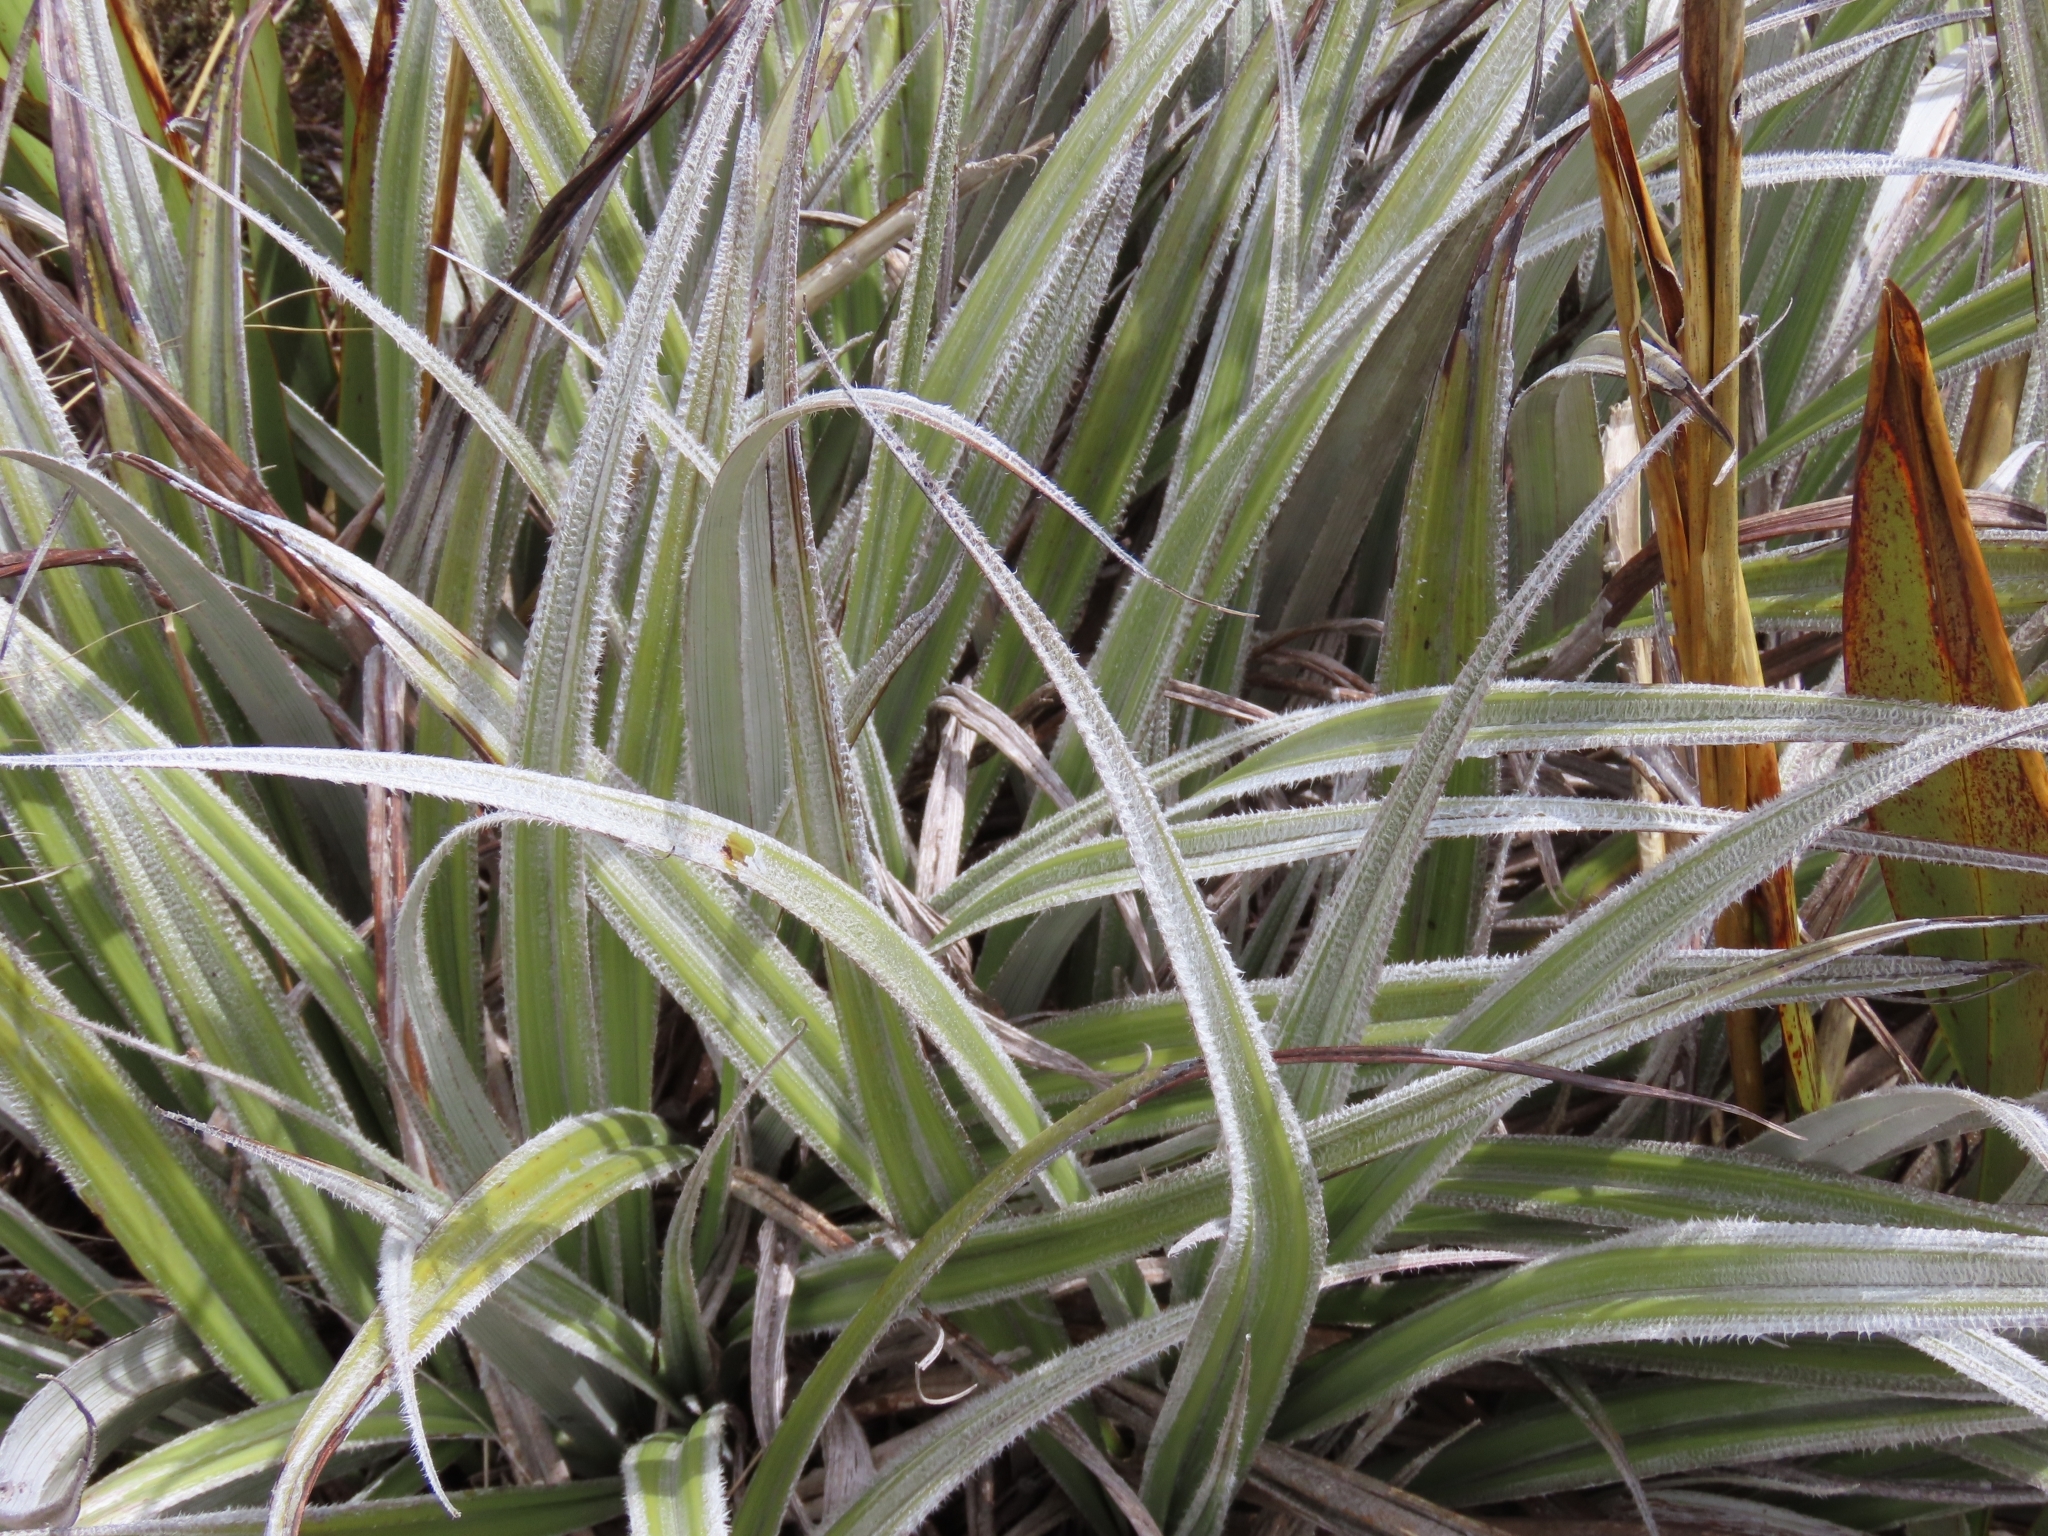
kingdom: Plantae
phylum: Tracheophyta
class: Liliopsida
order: Asparagales
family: Asteliaceae
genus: Astelia
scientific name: Astelia nervosa
